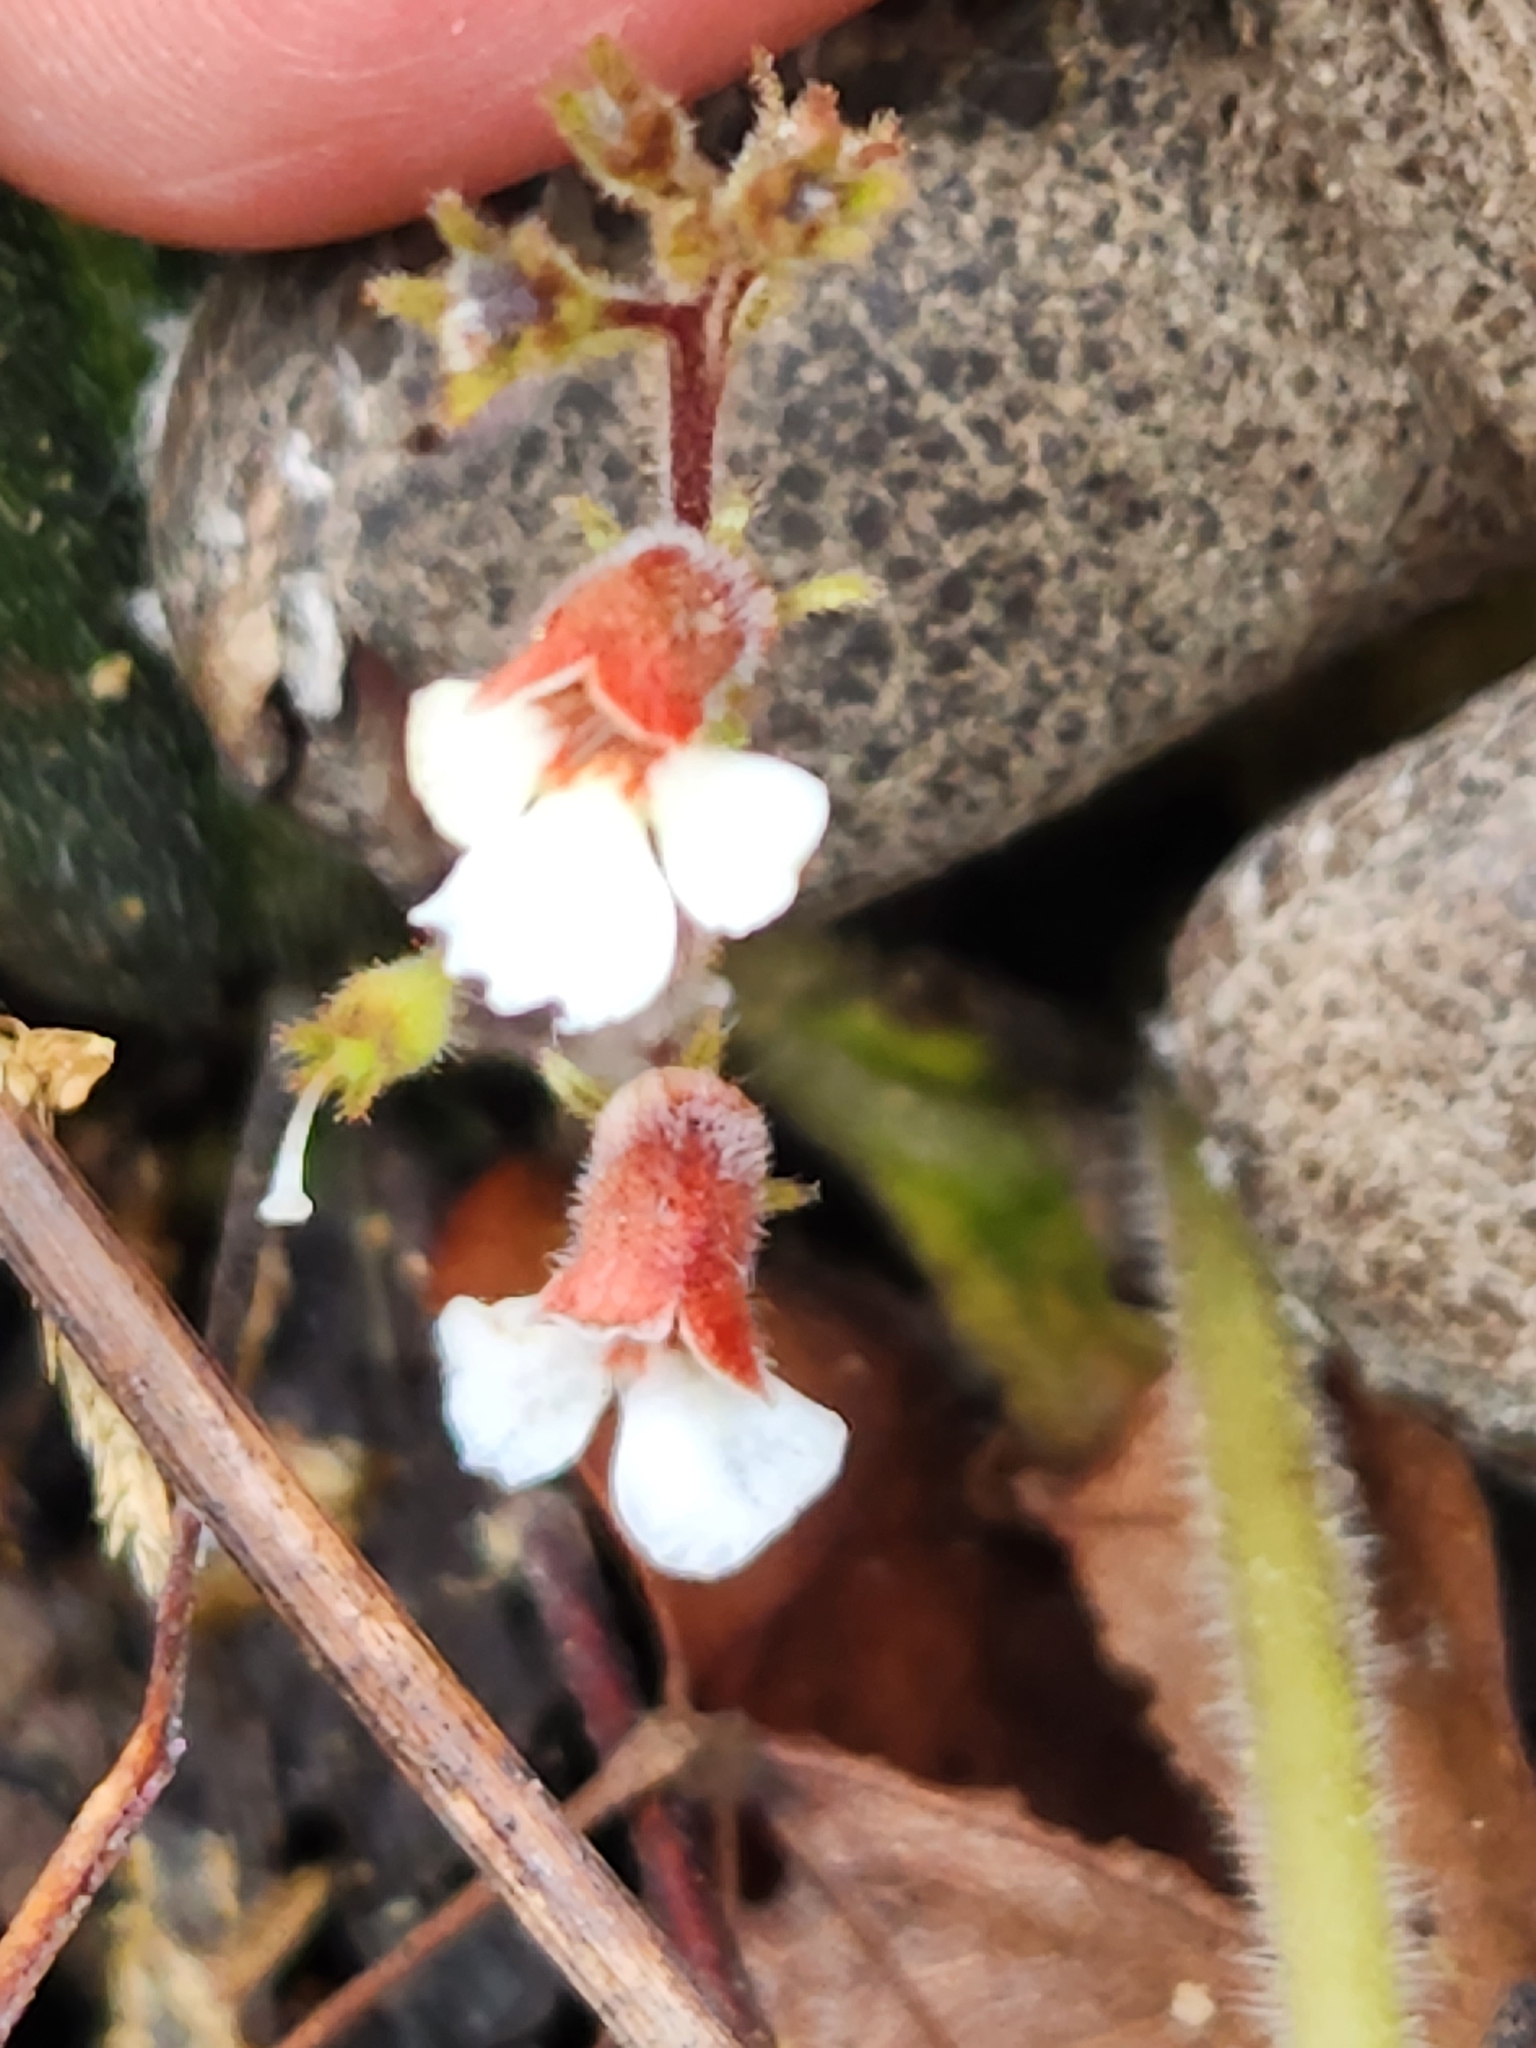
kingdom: Plantae
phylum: Tracheophyta
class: Magnoliopsida
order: Lamiales
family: Gesneriaceae
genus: Gloxinia
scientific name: Gloxinia erinoides
